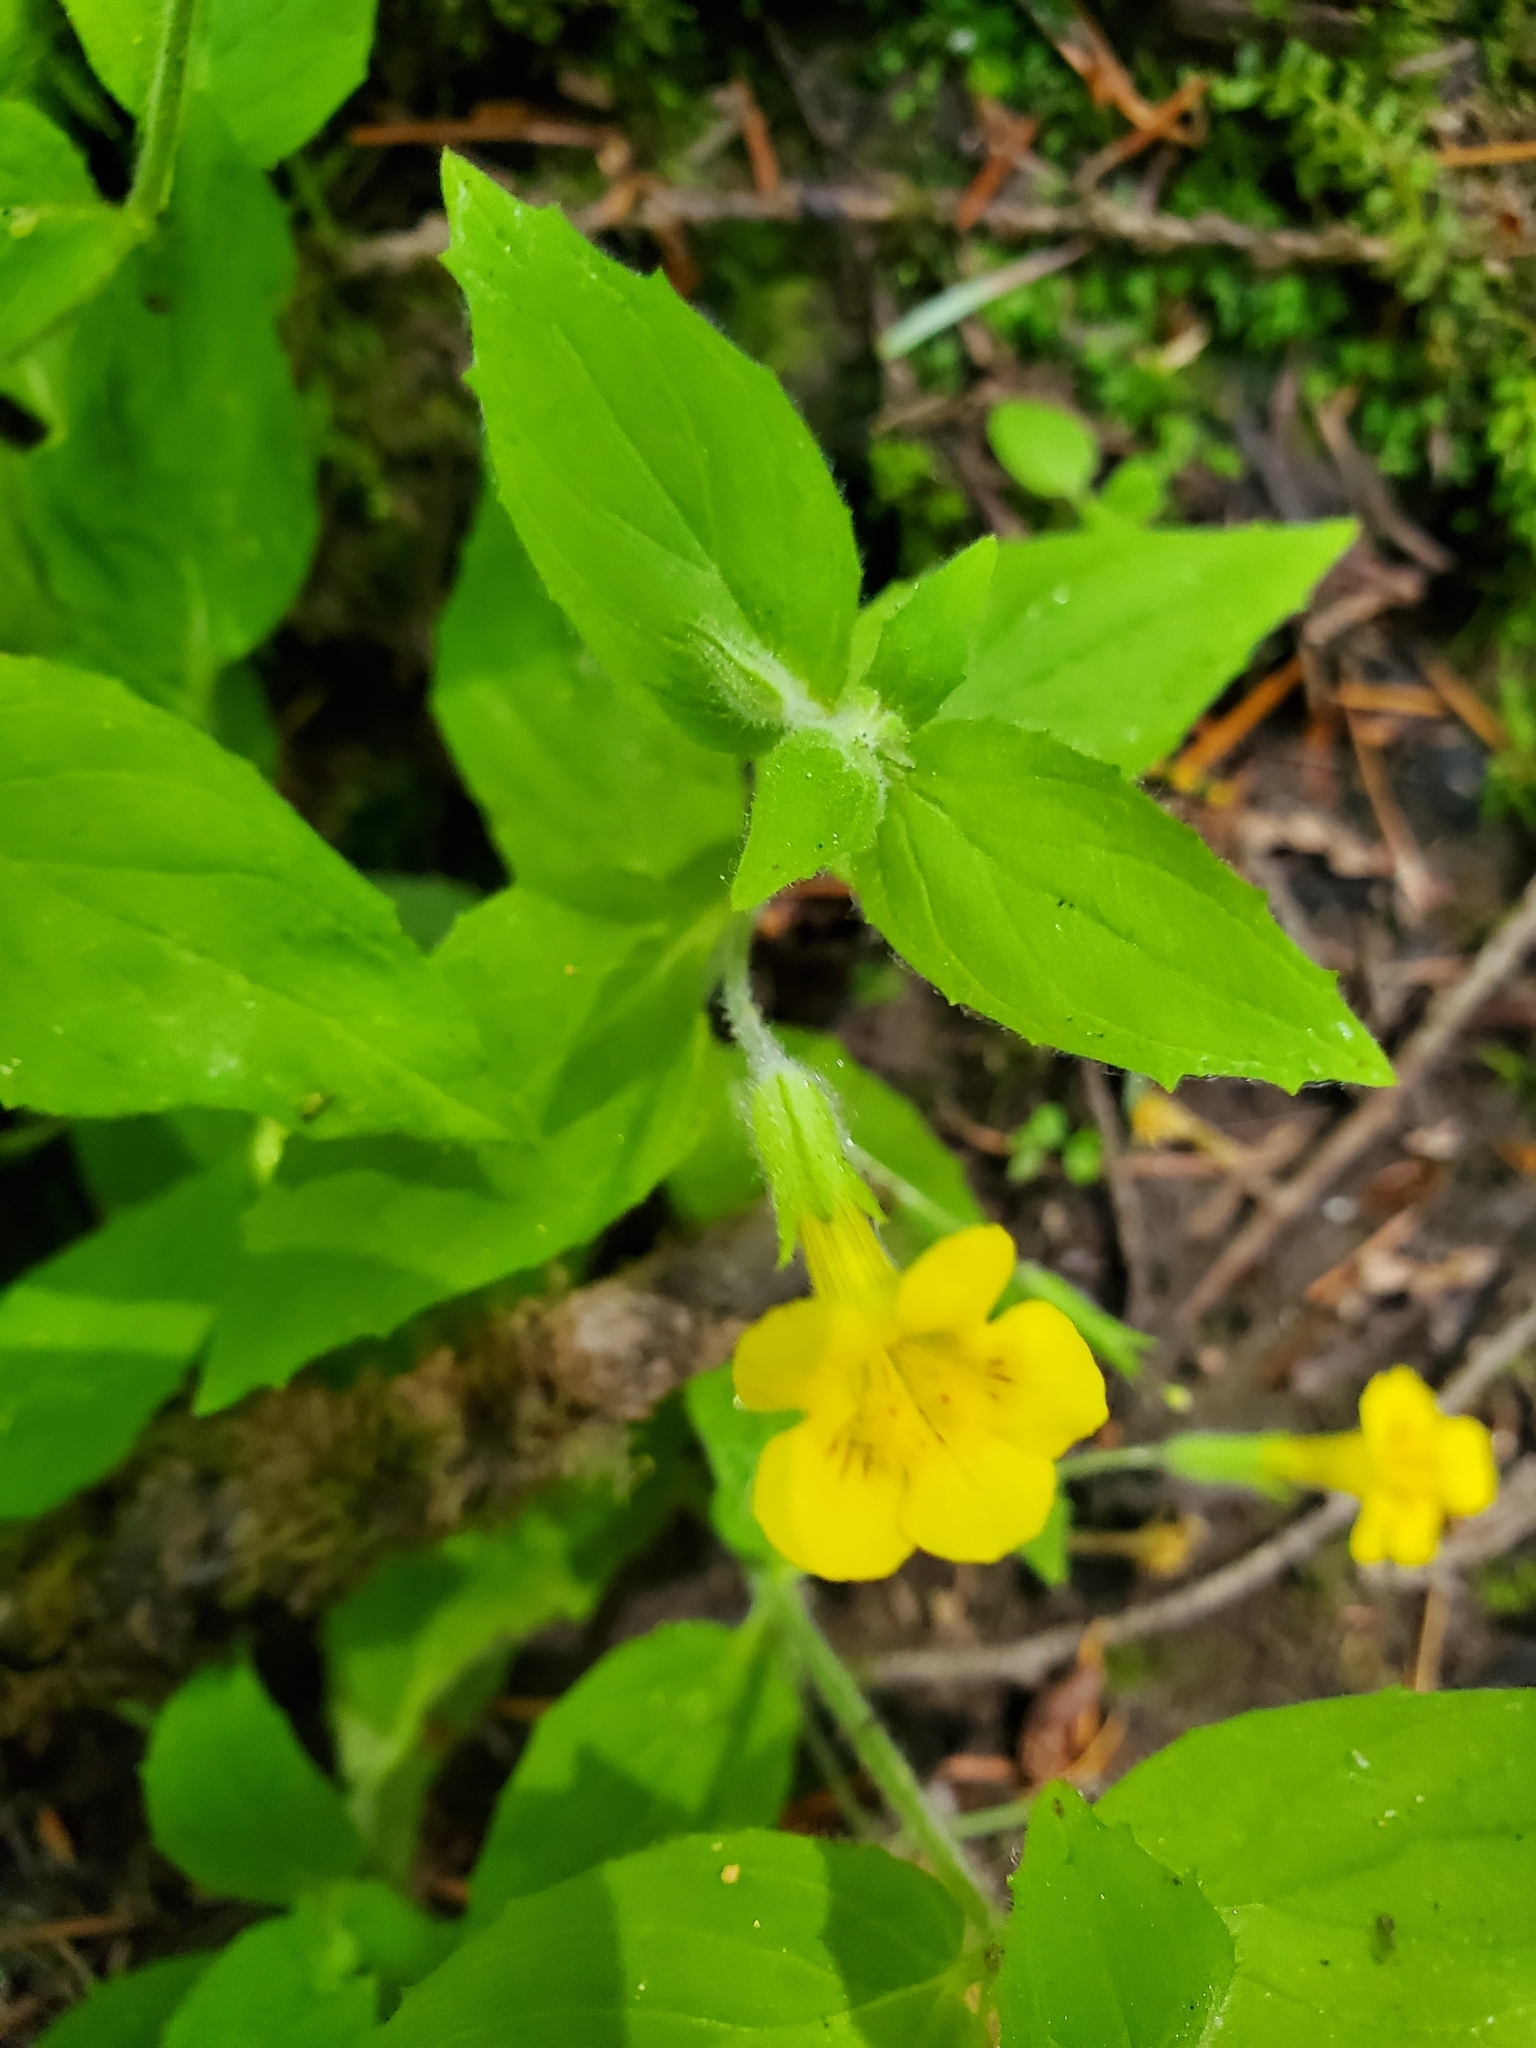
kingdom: Plantae
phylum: Tracheophyta
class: Magnoliopsida
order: Lamiales
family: Phrymaceae
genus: Erythranthe
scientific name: Erythranthe ptilota
